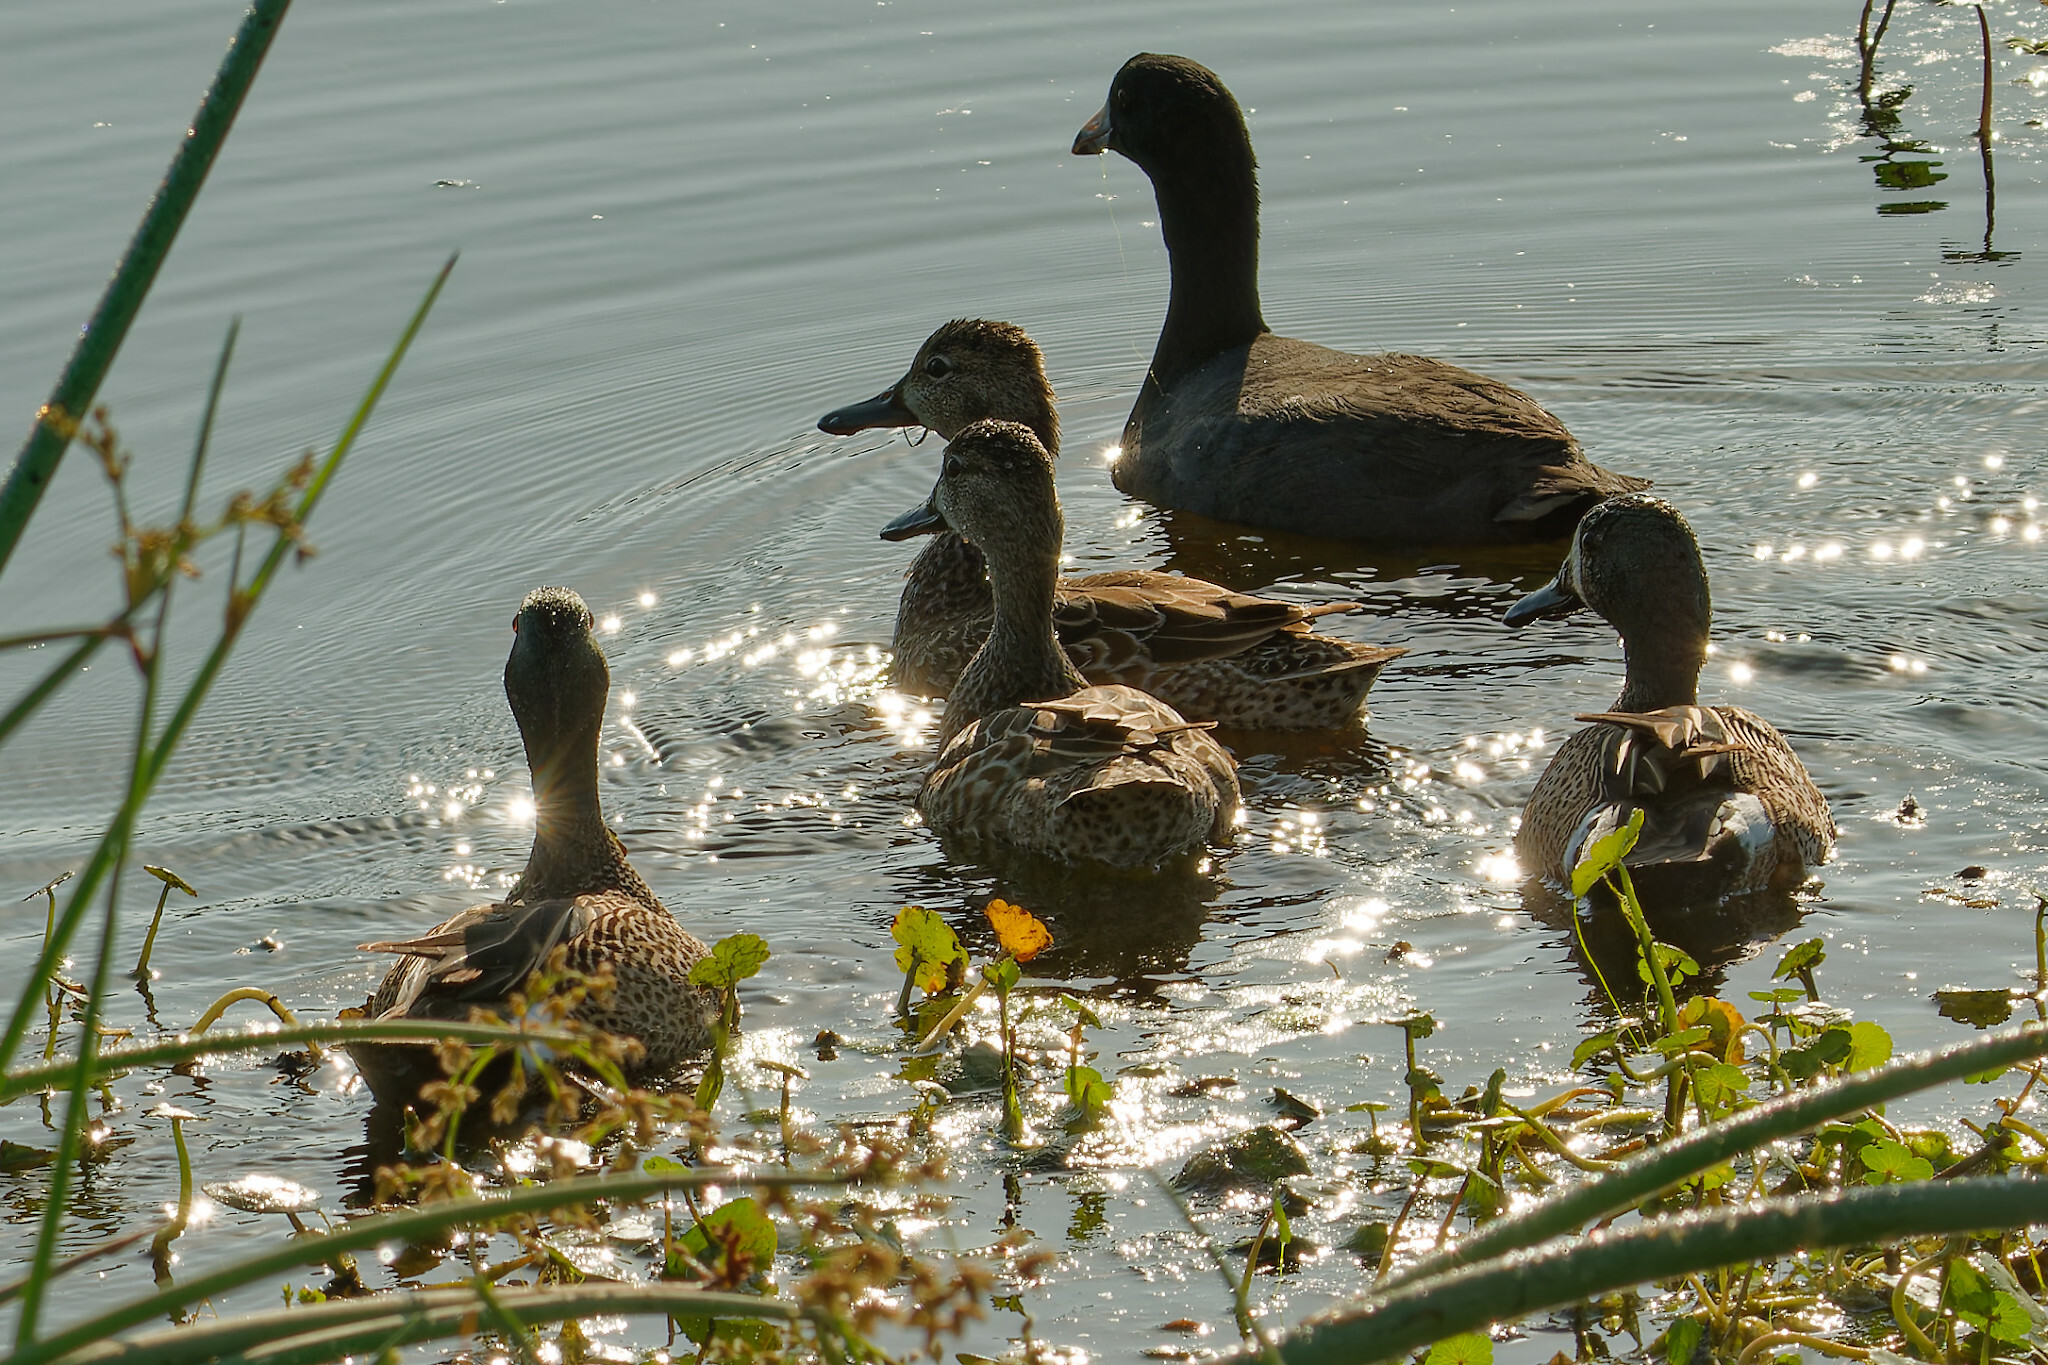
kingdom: Animalia
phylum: Chordata
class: Aves
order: Anseriformes
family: Anatidae
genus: Spatula
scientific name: Spatula discors
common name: Blue-winged teal
